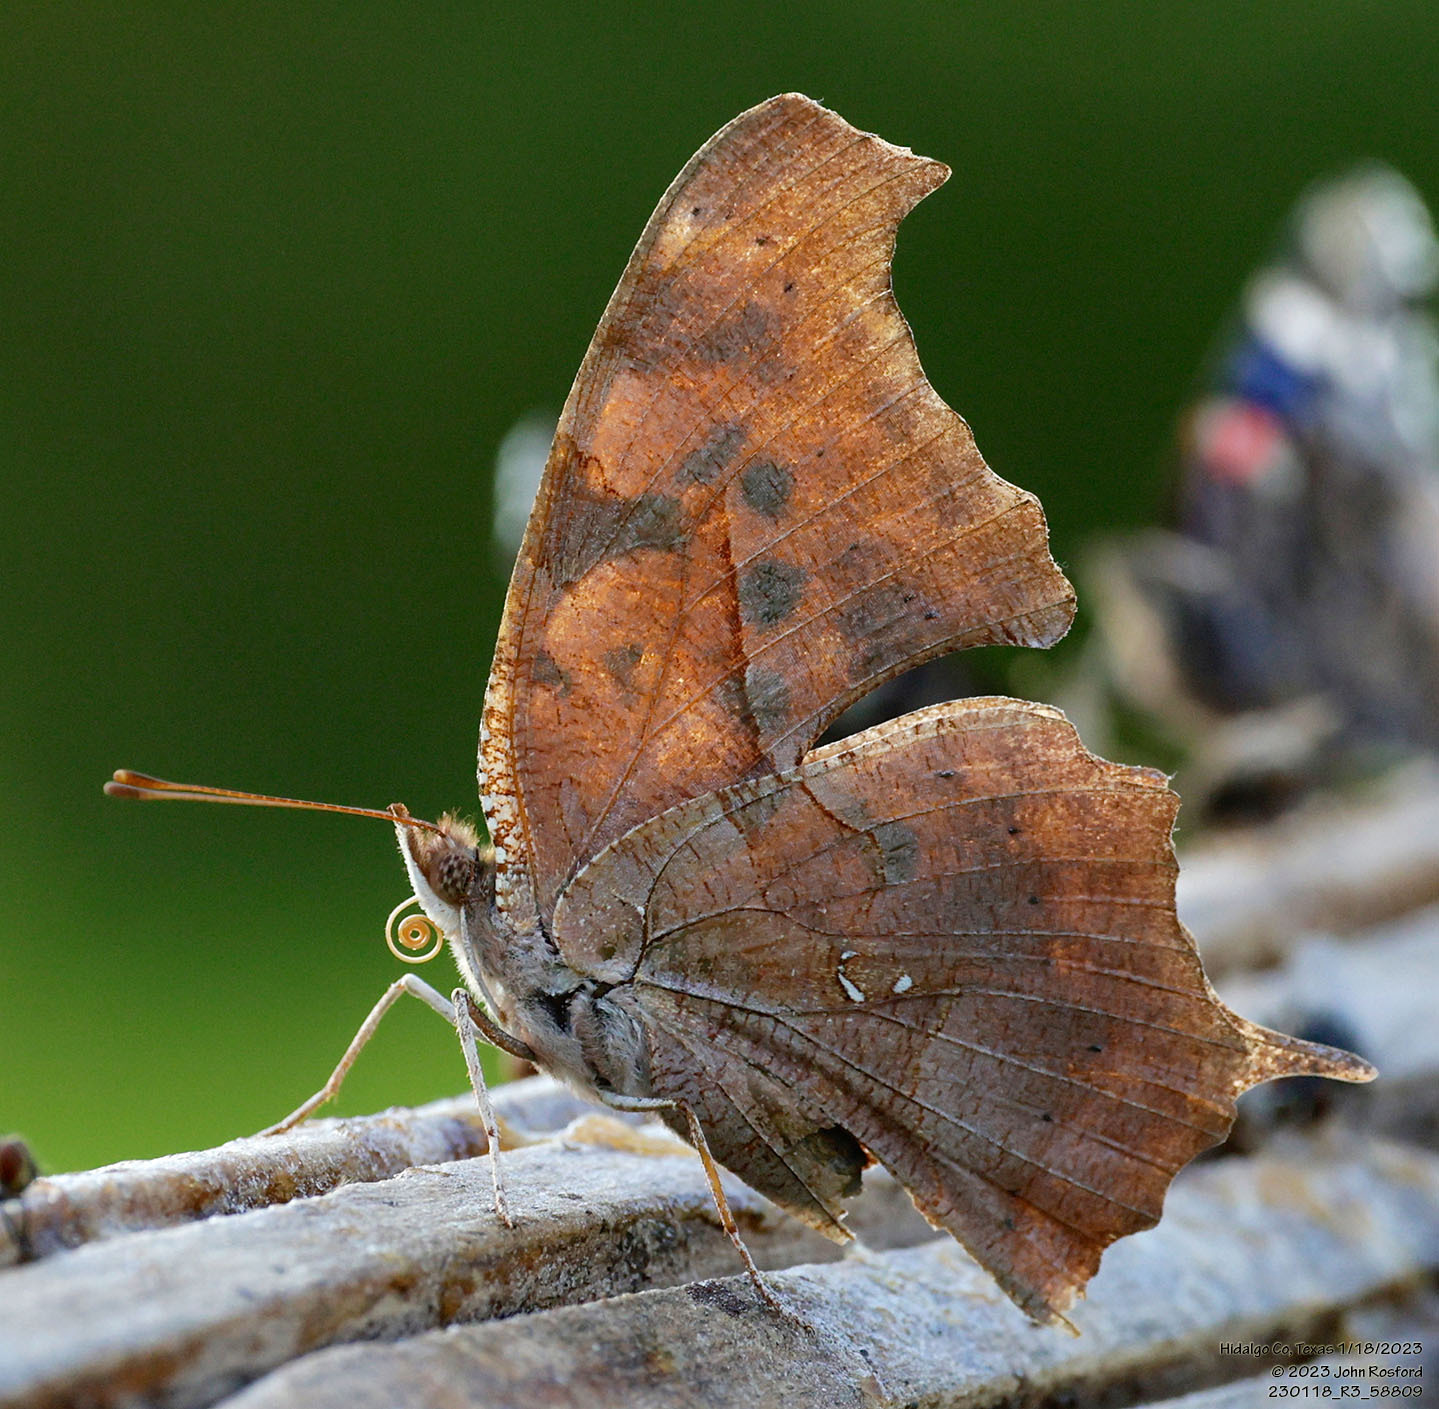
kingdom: Animalia
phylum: Arthropoda
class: Insecta
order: Lepidoptera
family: Nymphalidae
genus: Polygonia
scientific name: Polygonia interrogationis
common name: Question mark
